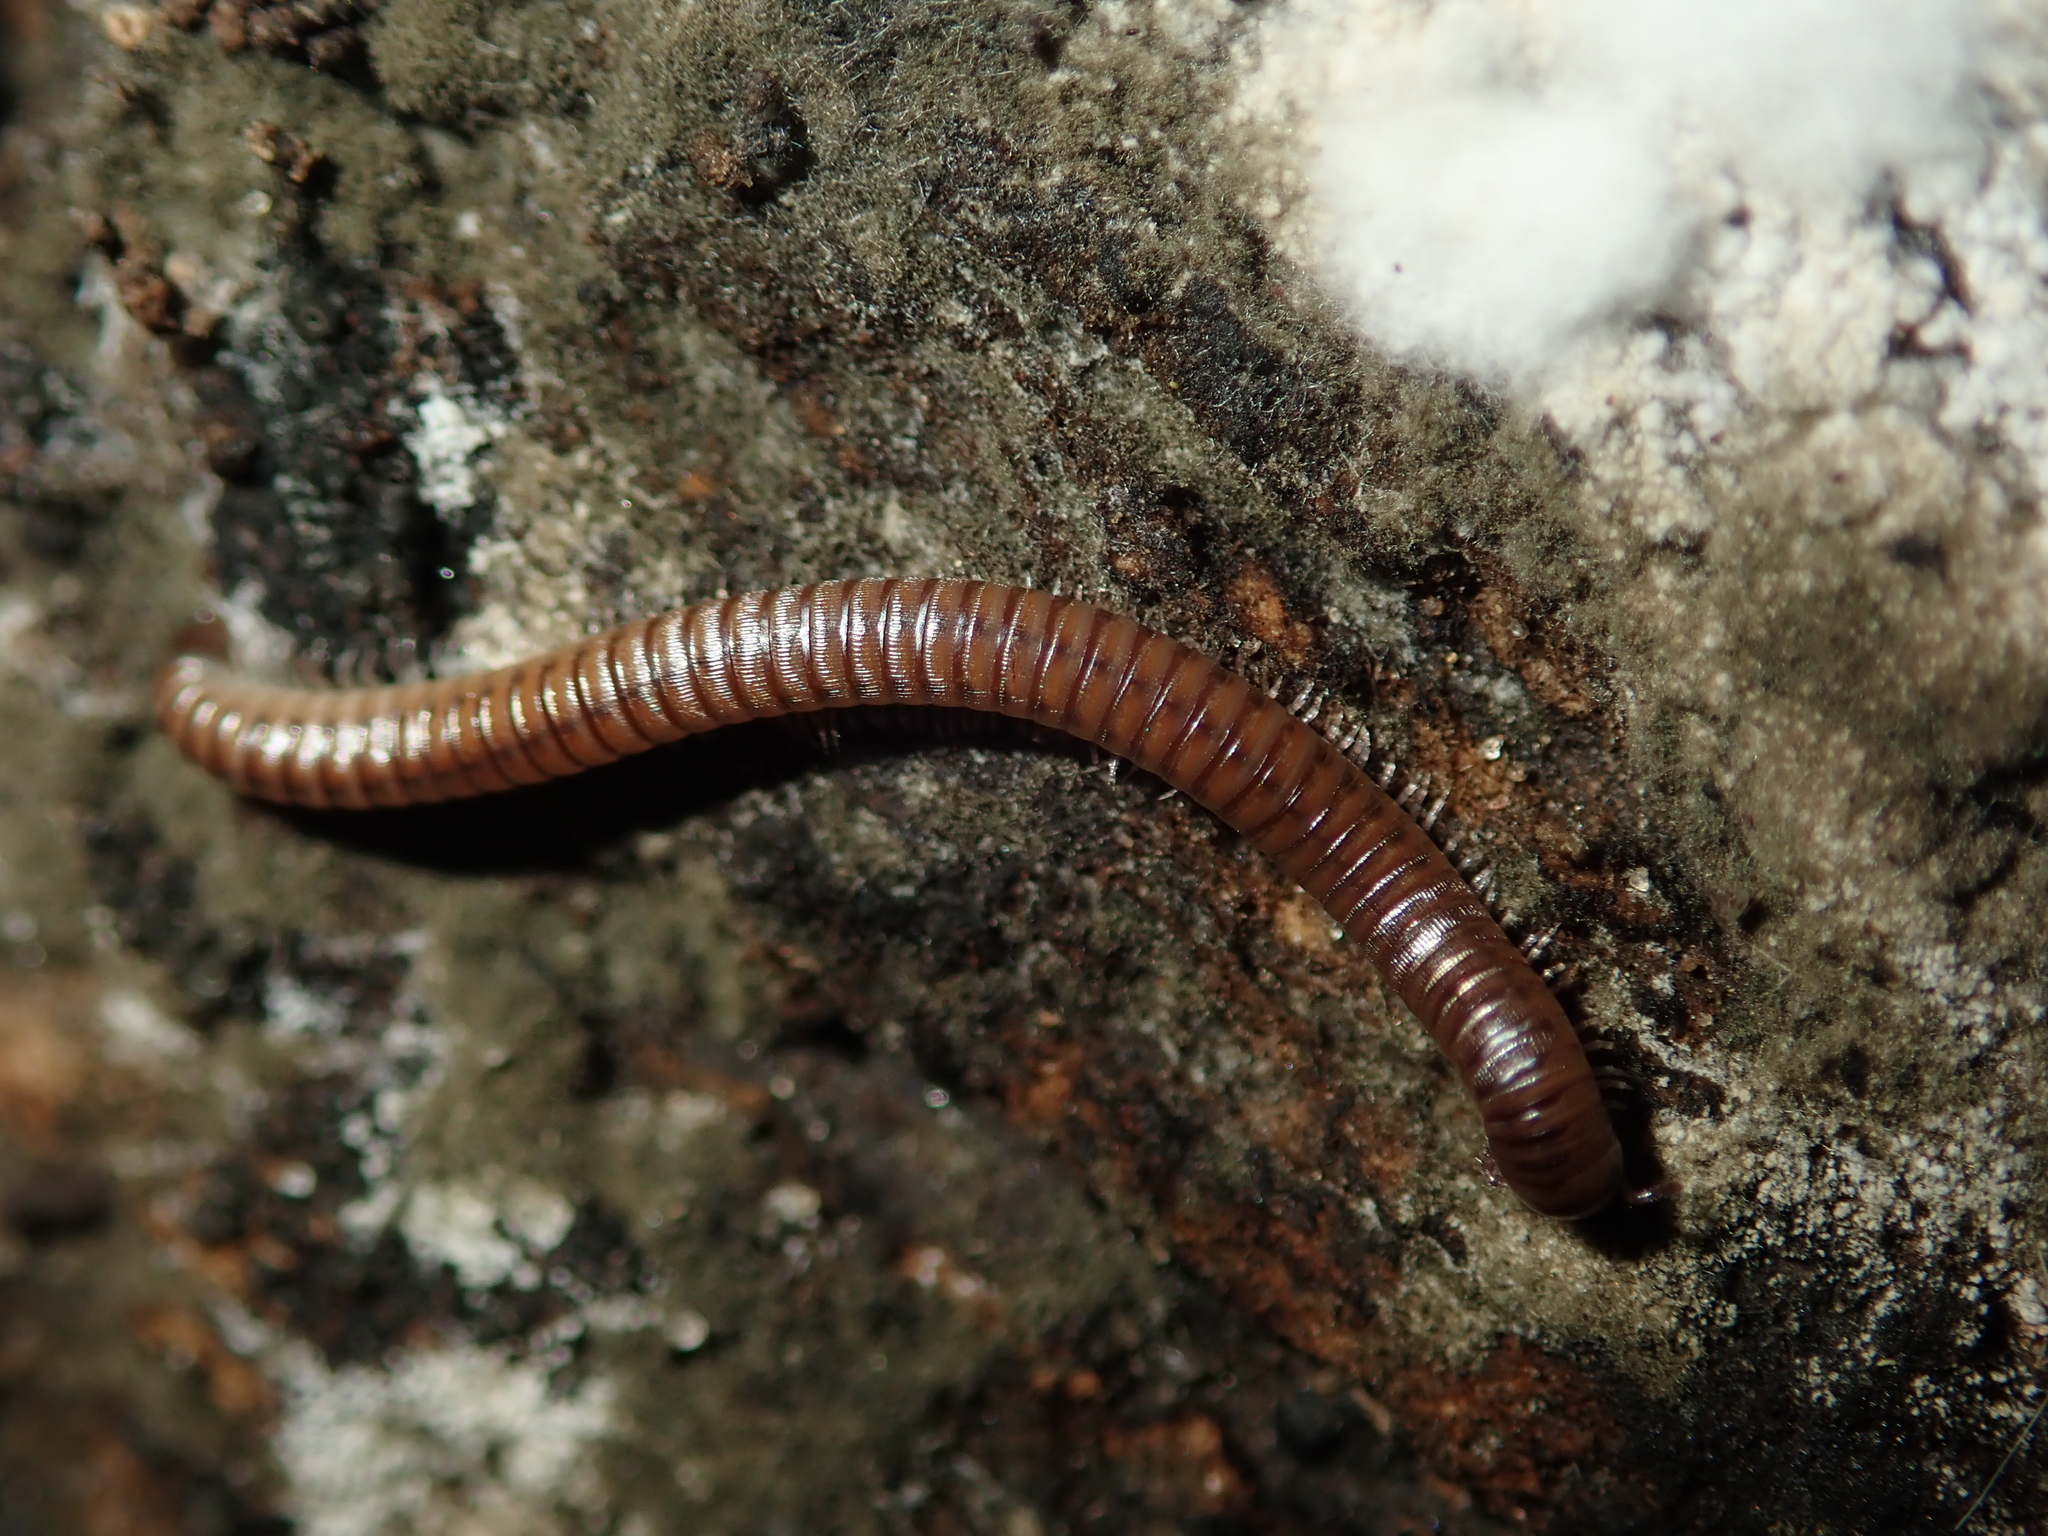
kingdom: Animalia
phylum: Arthropoda
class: Diplopoda
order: Julida
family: Julidae
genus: Cylindroiulus
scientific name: Cylindroiulus punctatus
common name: Blunt-tailed millipede
